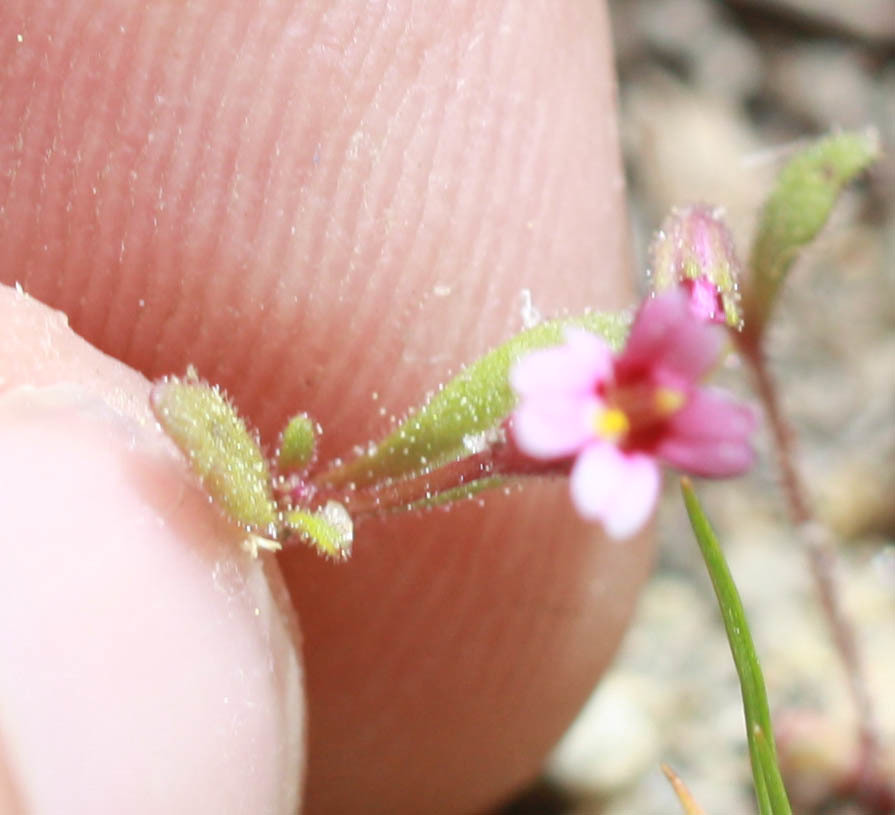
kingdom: Plantae
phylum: Tracheophyta
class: Magnoliopsida
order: Lamiales
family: Phrymaceae
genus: Erythranthe
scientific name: Erythranthe breweri
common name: Brewer's monkeyflower
